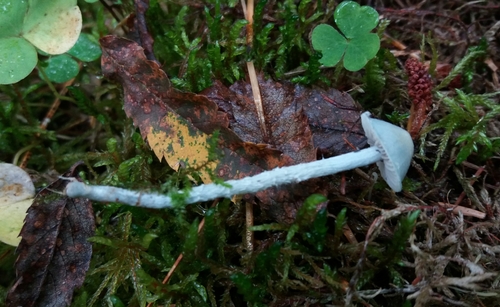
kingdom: Fungi
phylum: Basidiomycota
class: Agaricomycetes
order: Agaricales
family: Strophariaceae
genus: Stropharia
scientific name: Stropharia
